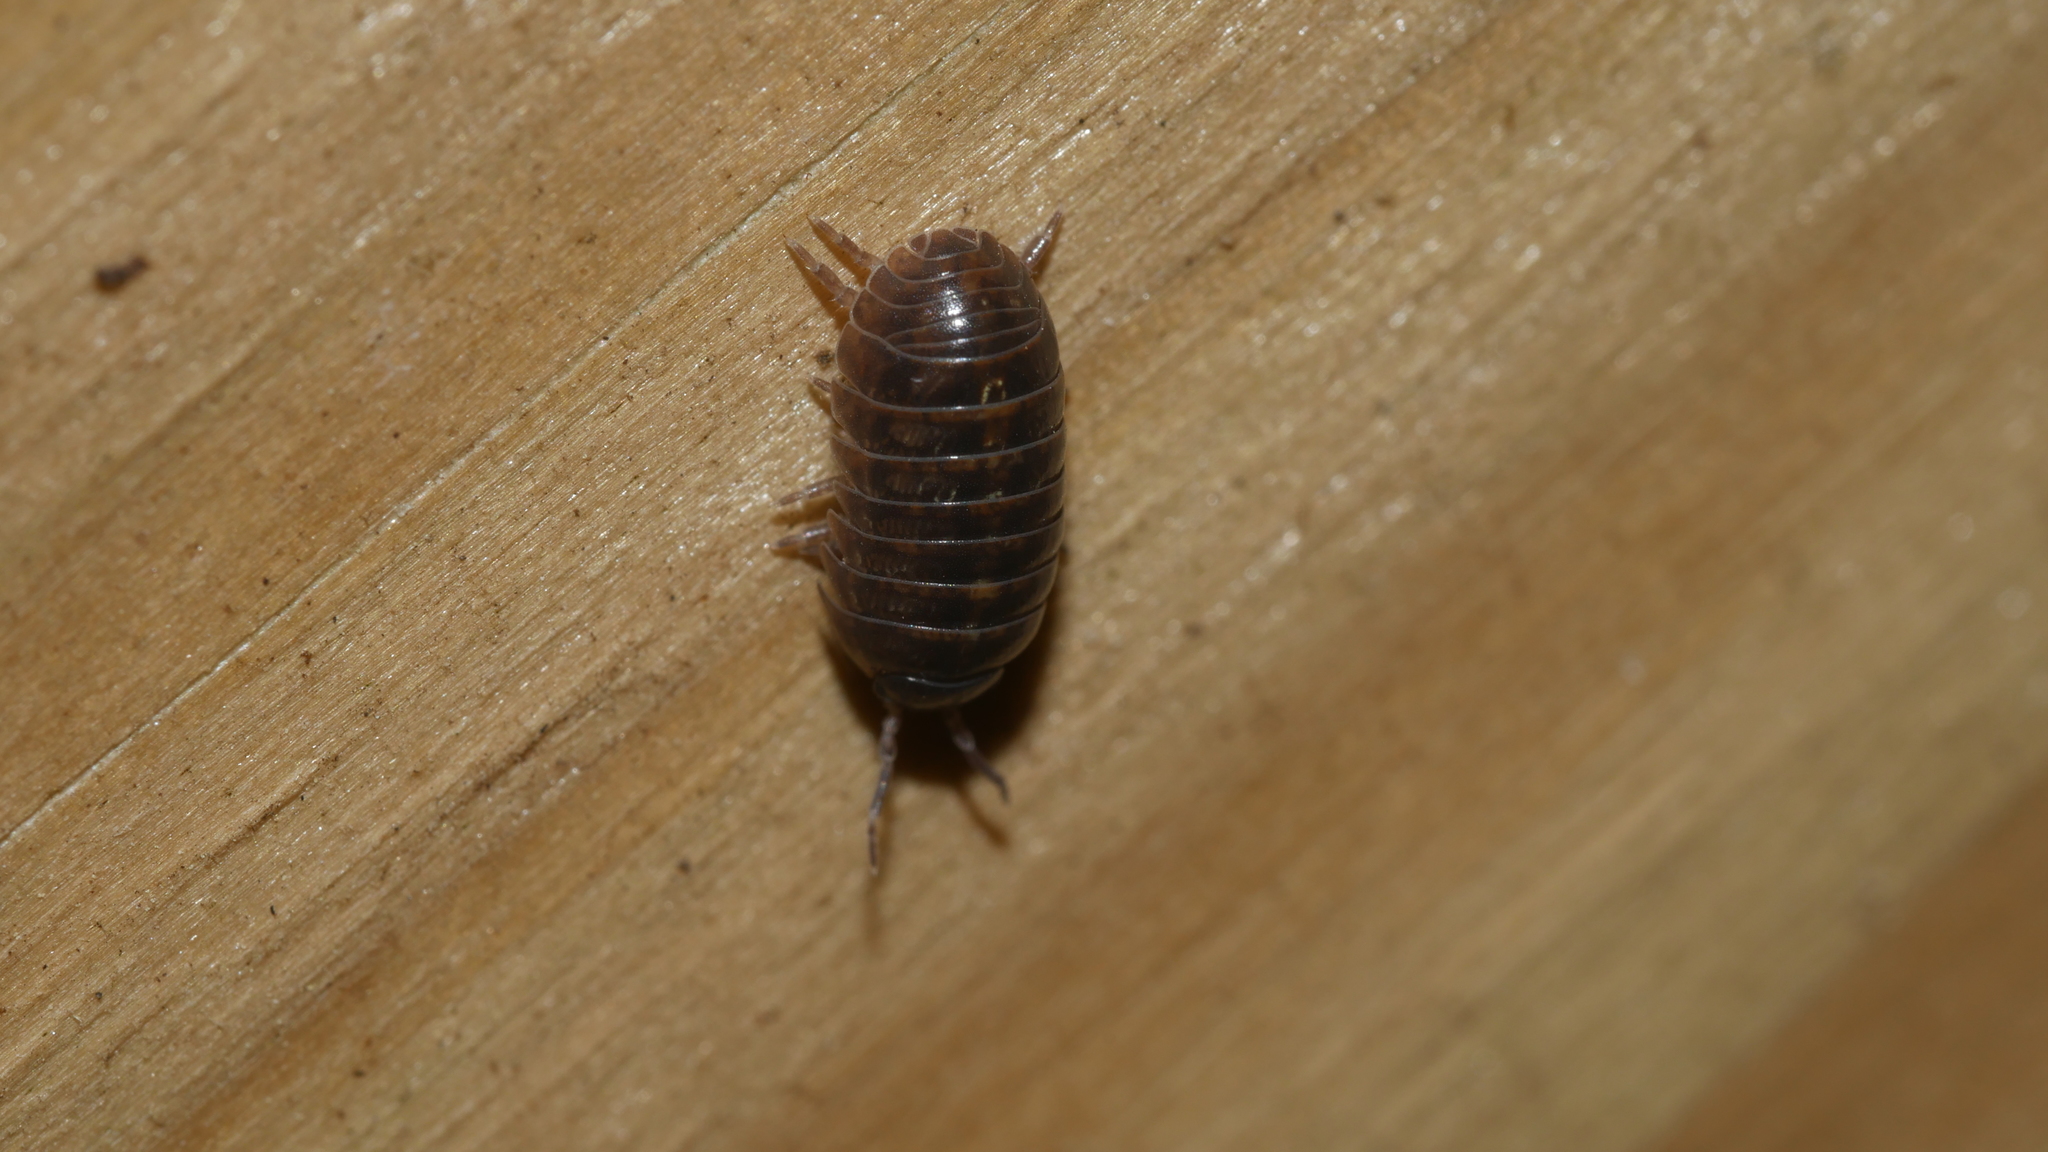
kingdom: Animalia
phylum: Arthropoda
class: Malacostraca
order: Isopoda
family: Armadillidiidae
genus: Armadillidium
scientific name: Armadillidium vulgare
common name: Common pill woodlouse
